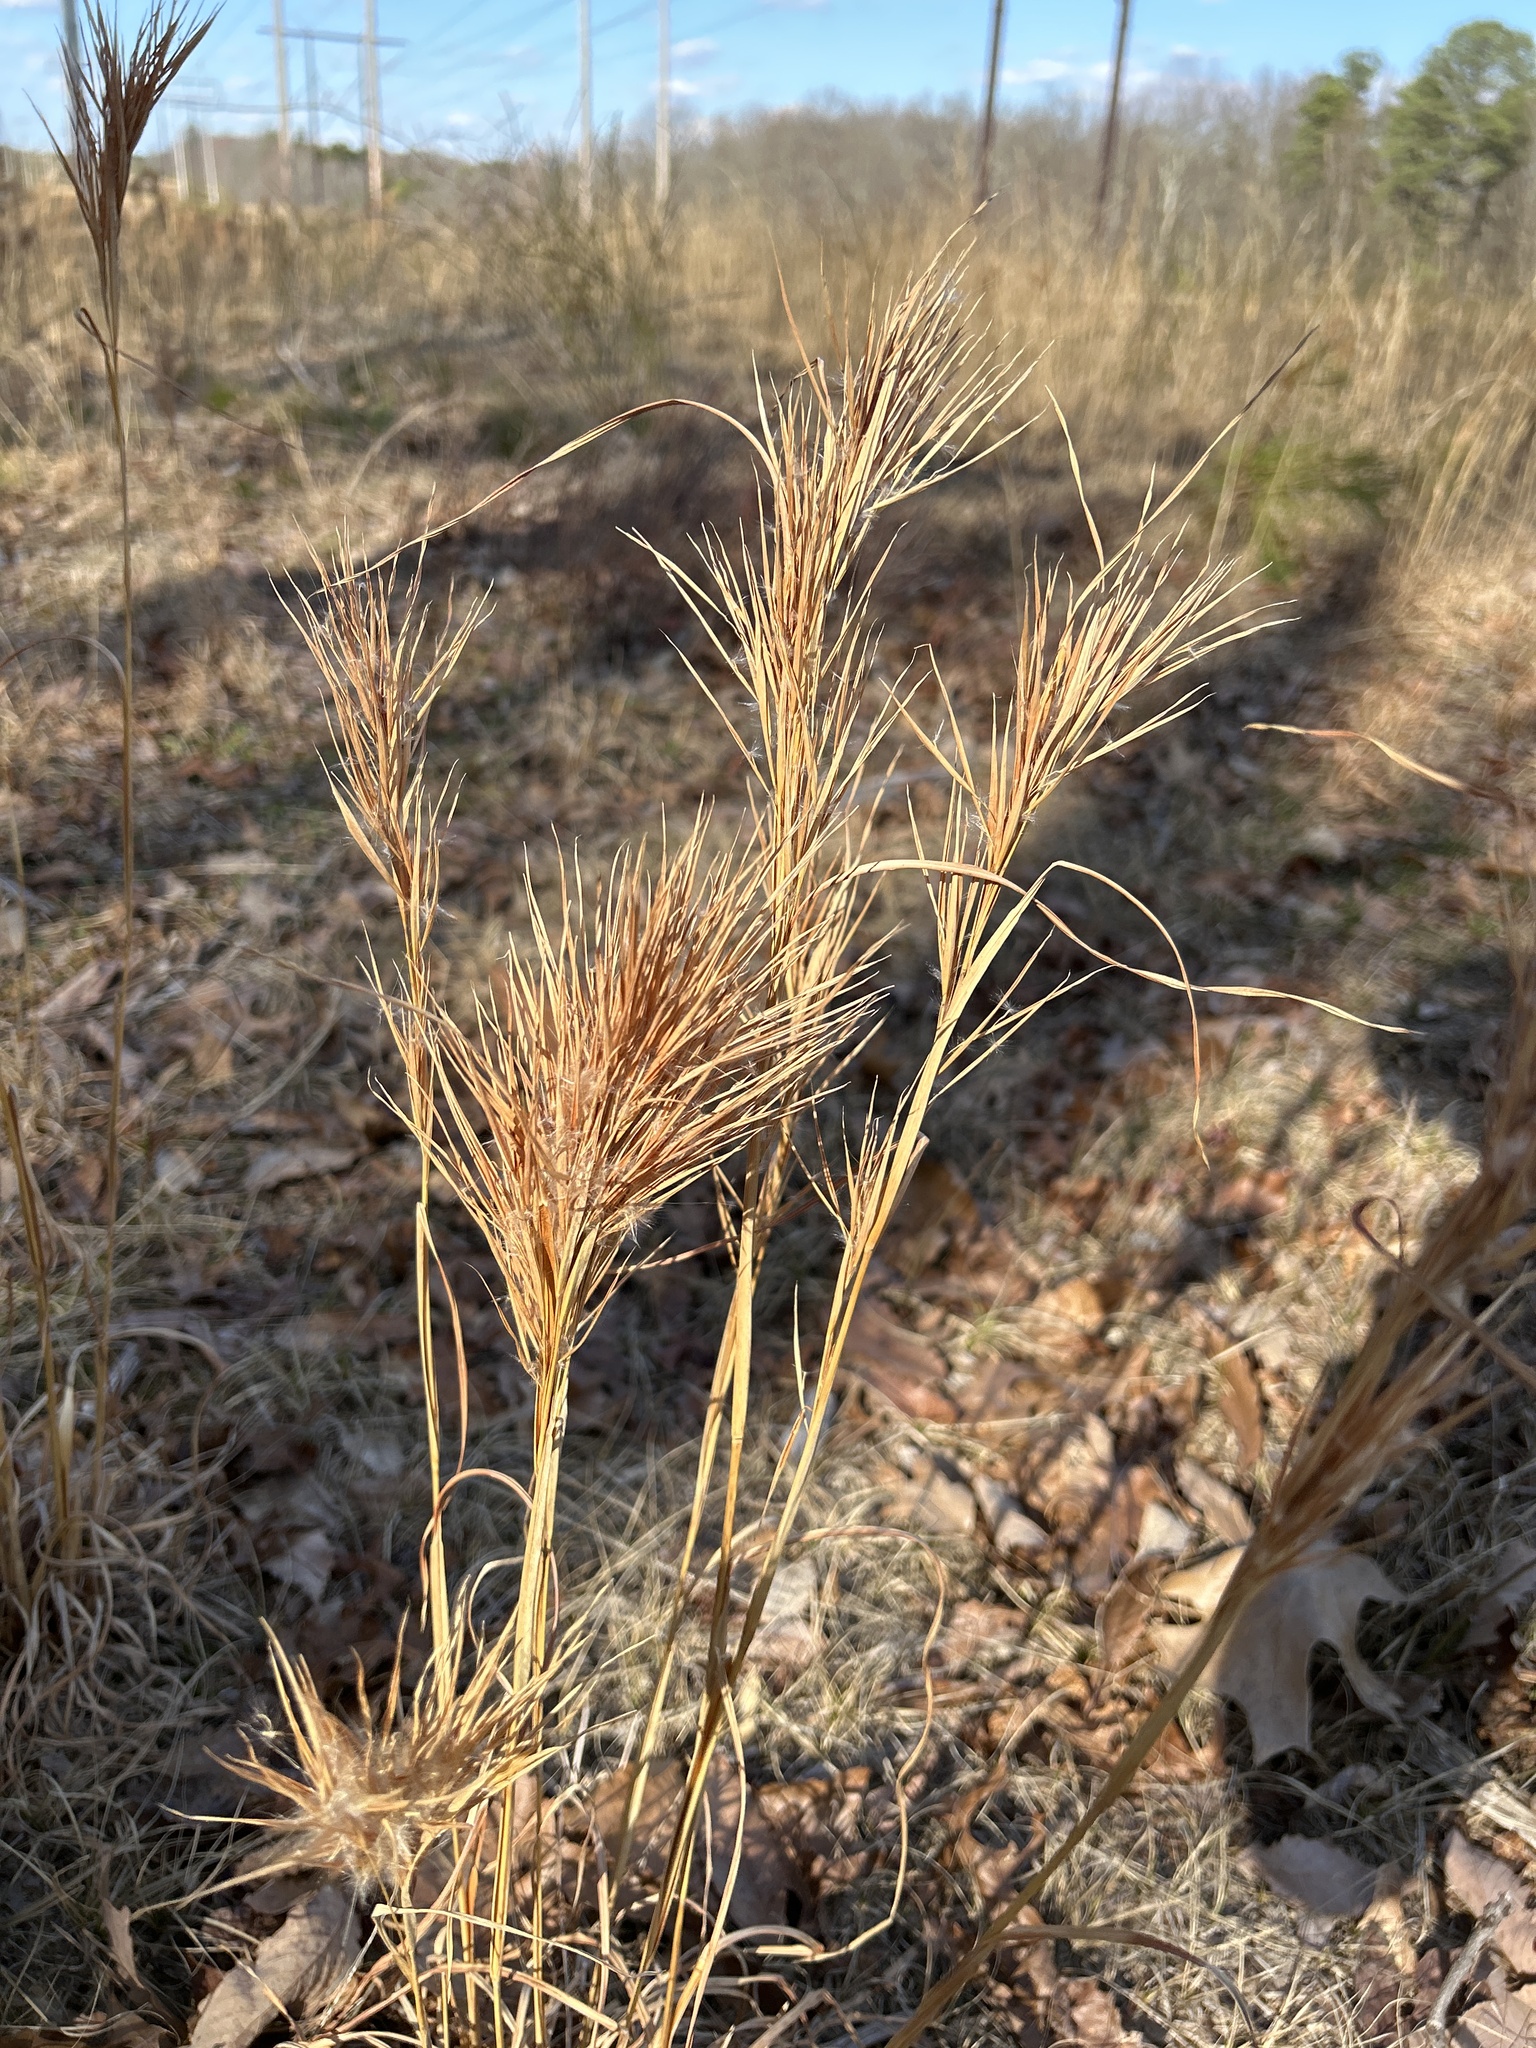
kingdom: Plantae
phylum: Tracheophyta
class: Liliopsida
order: Poales
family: Poaceae
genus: Andropogon
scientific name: Andropogon glomeratus
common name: Bushy beard grass
